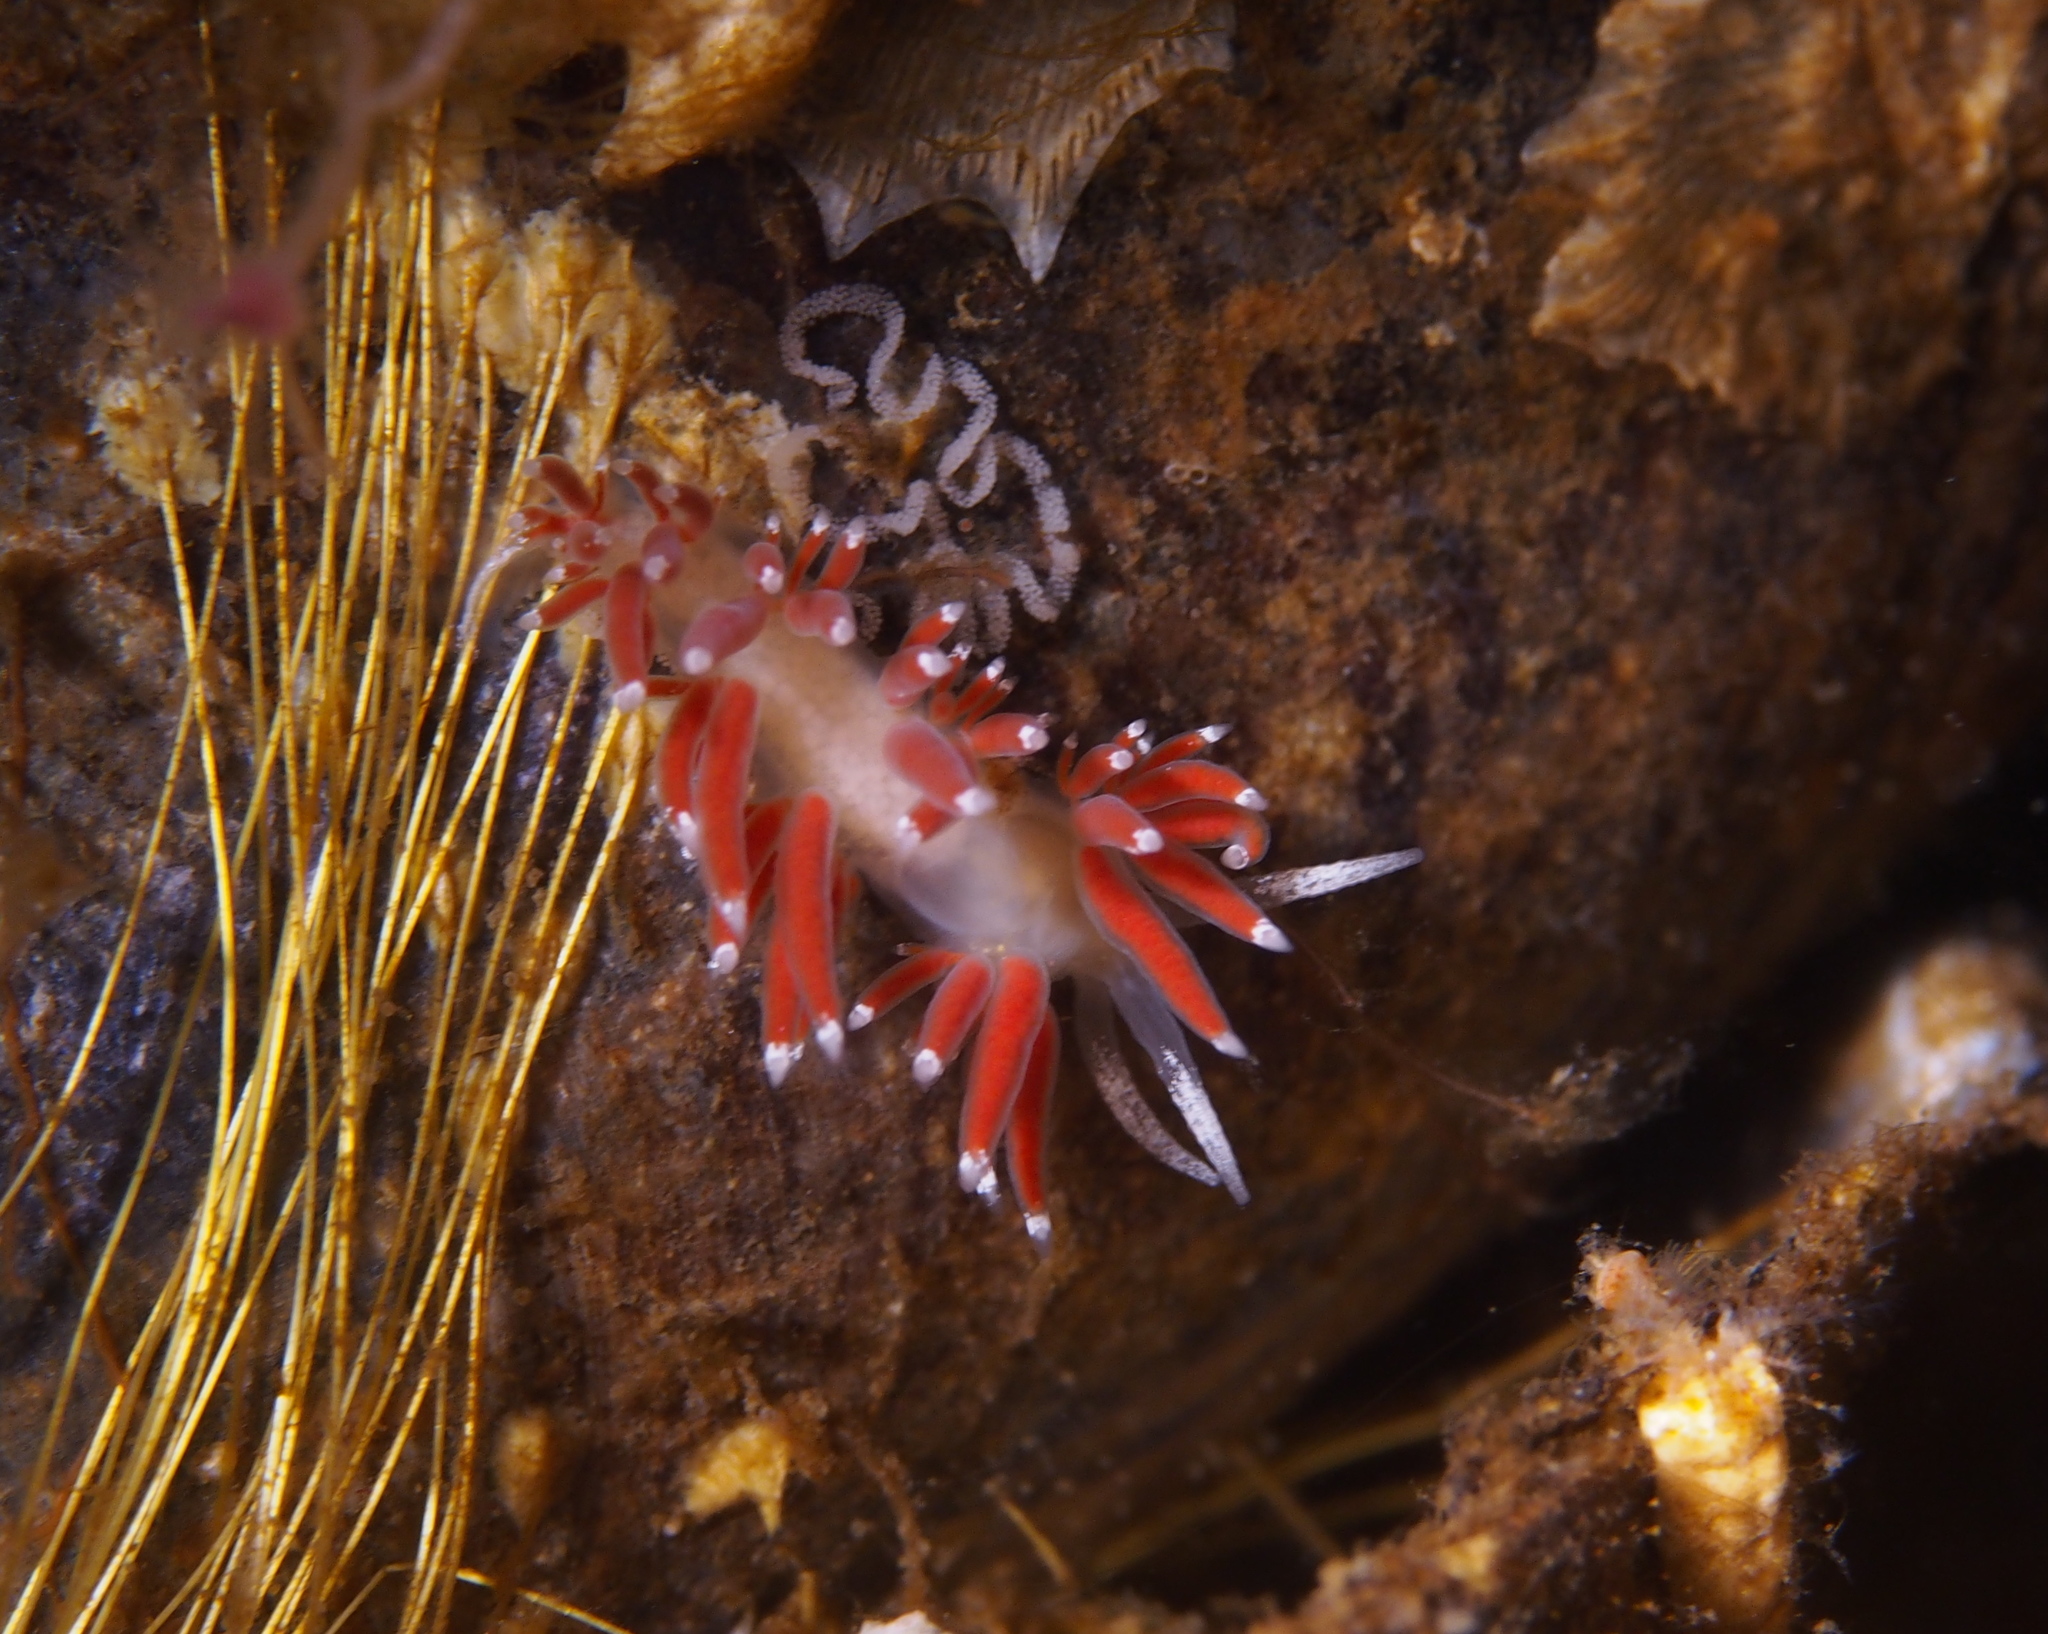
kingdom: Animalia
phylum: Mollusca
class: Gastropoda
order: Nudibranchia
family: Coryphellidae
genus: Coryphella
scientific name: Coryphella gracilis
